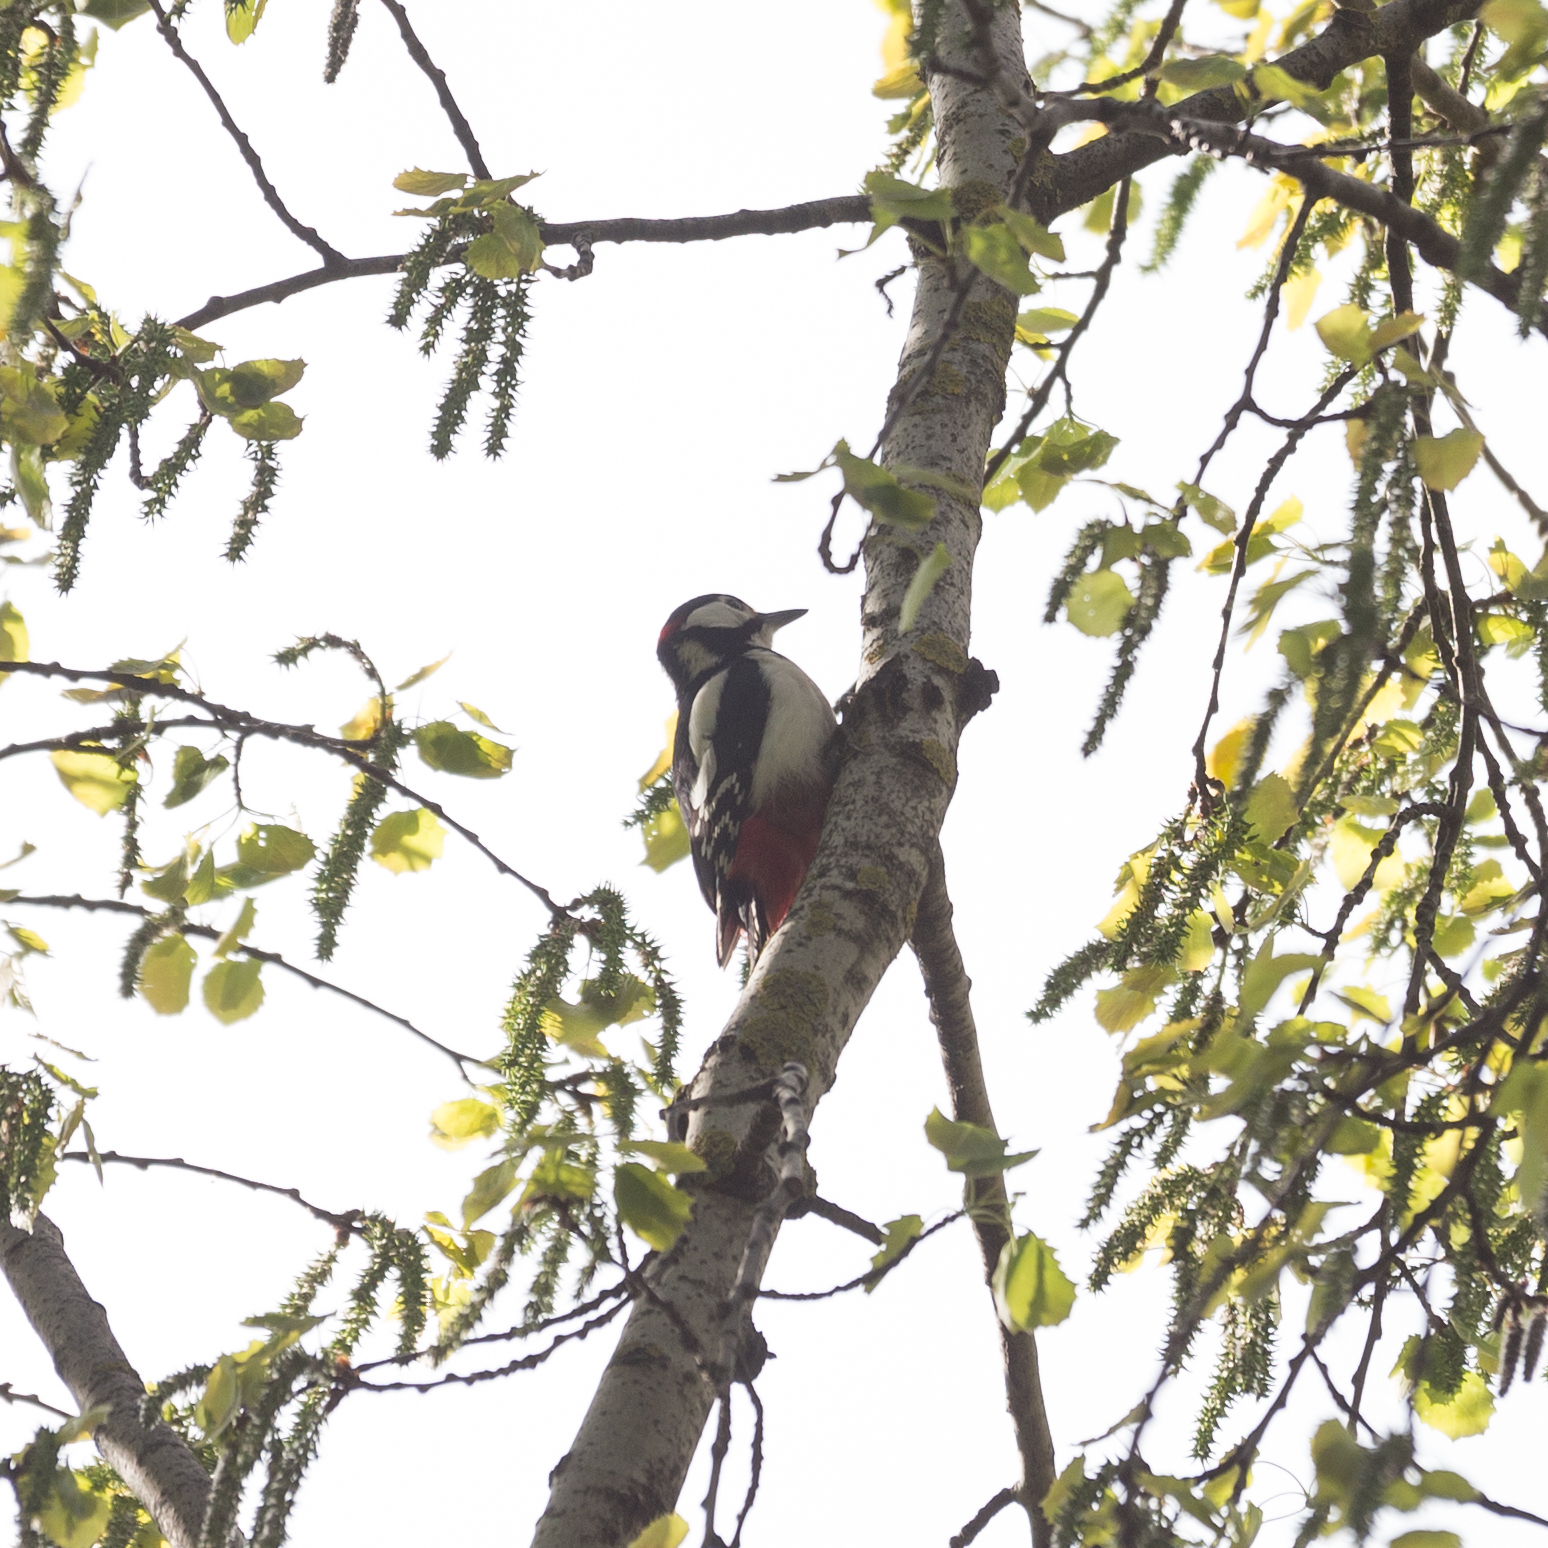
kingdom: Animalia
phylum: Chordata
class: Aves
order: Piciformes
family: Picidae
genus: Dendrocopos
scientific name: Dendrocopos major
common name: Great spotted woodpecker
